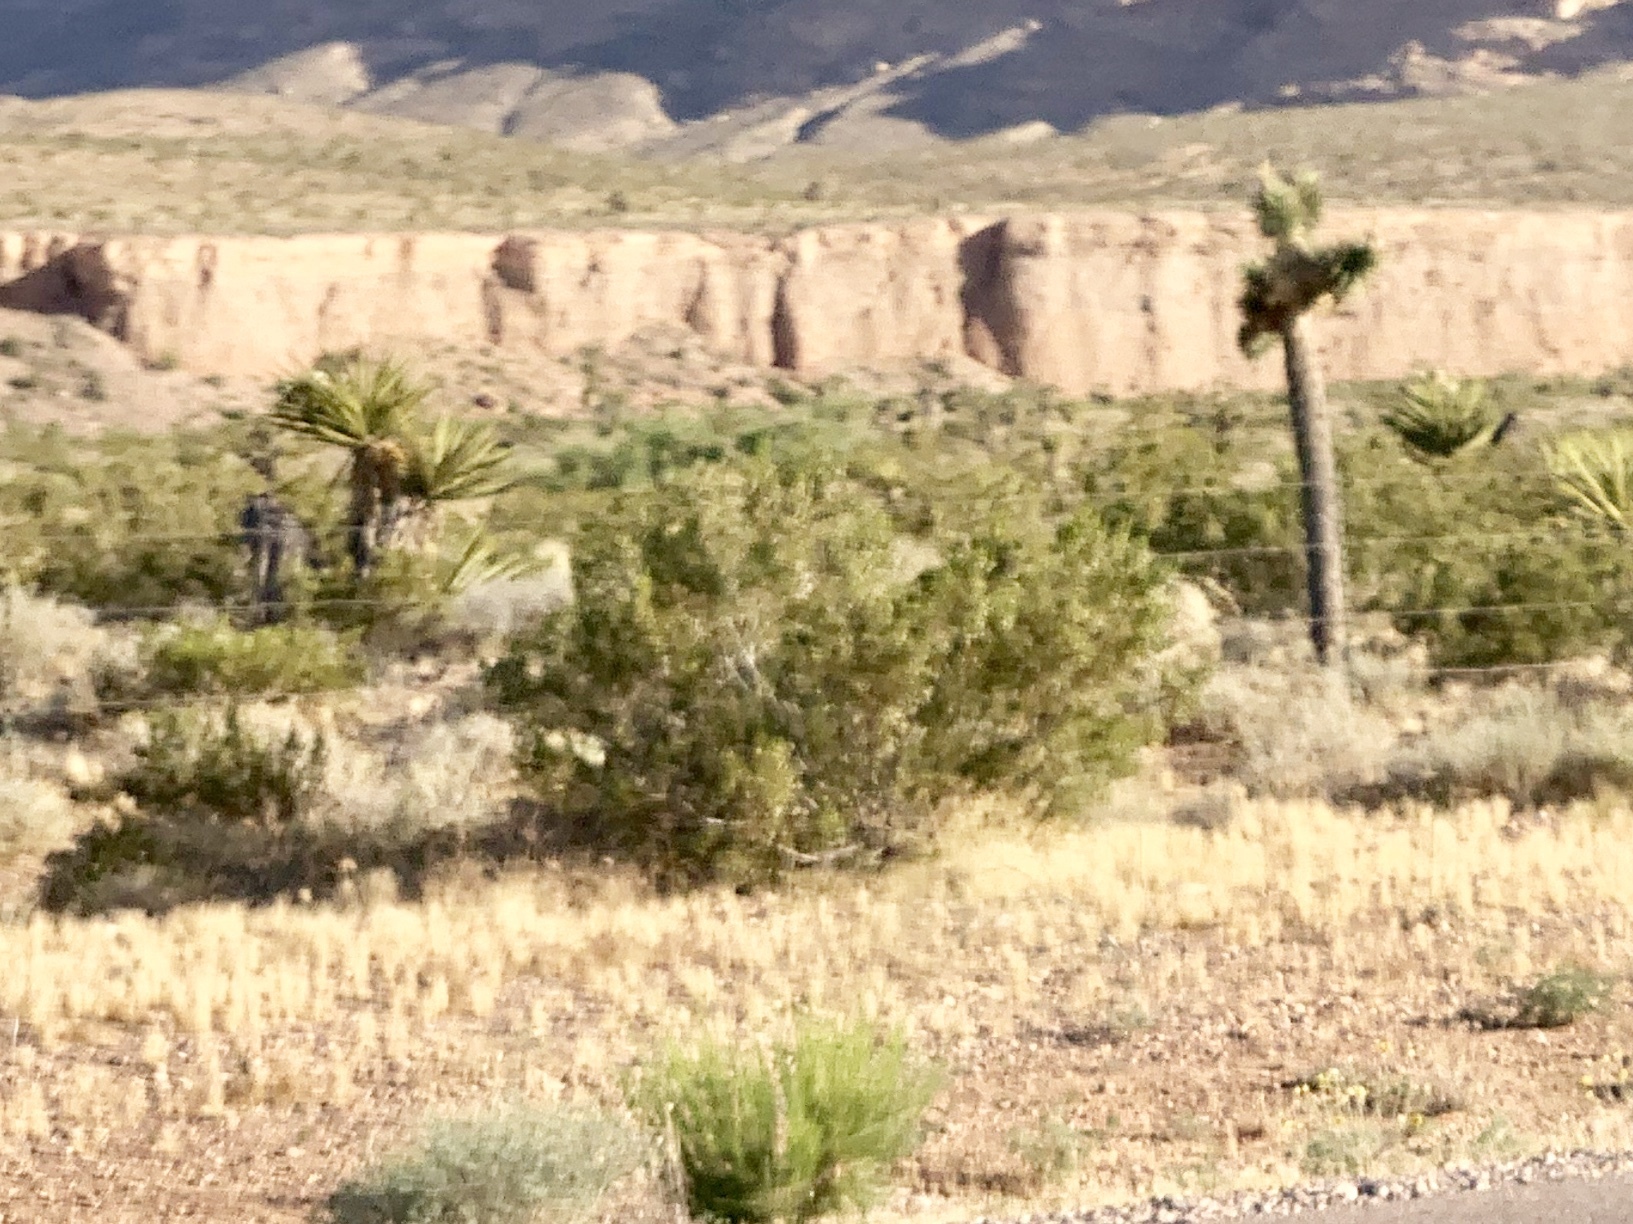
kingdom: Plantae
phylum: Tracheophyta
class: Magnoliopsida
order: Zygophyllales
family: Zygophyllaceae
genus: Larrea
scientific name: Larrea tridentata
